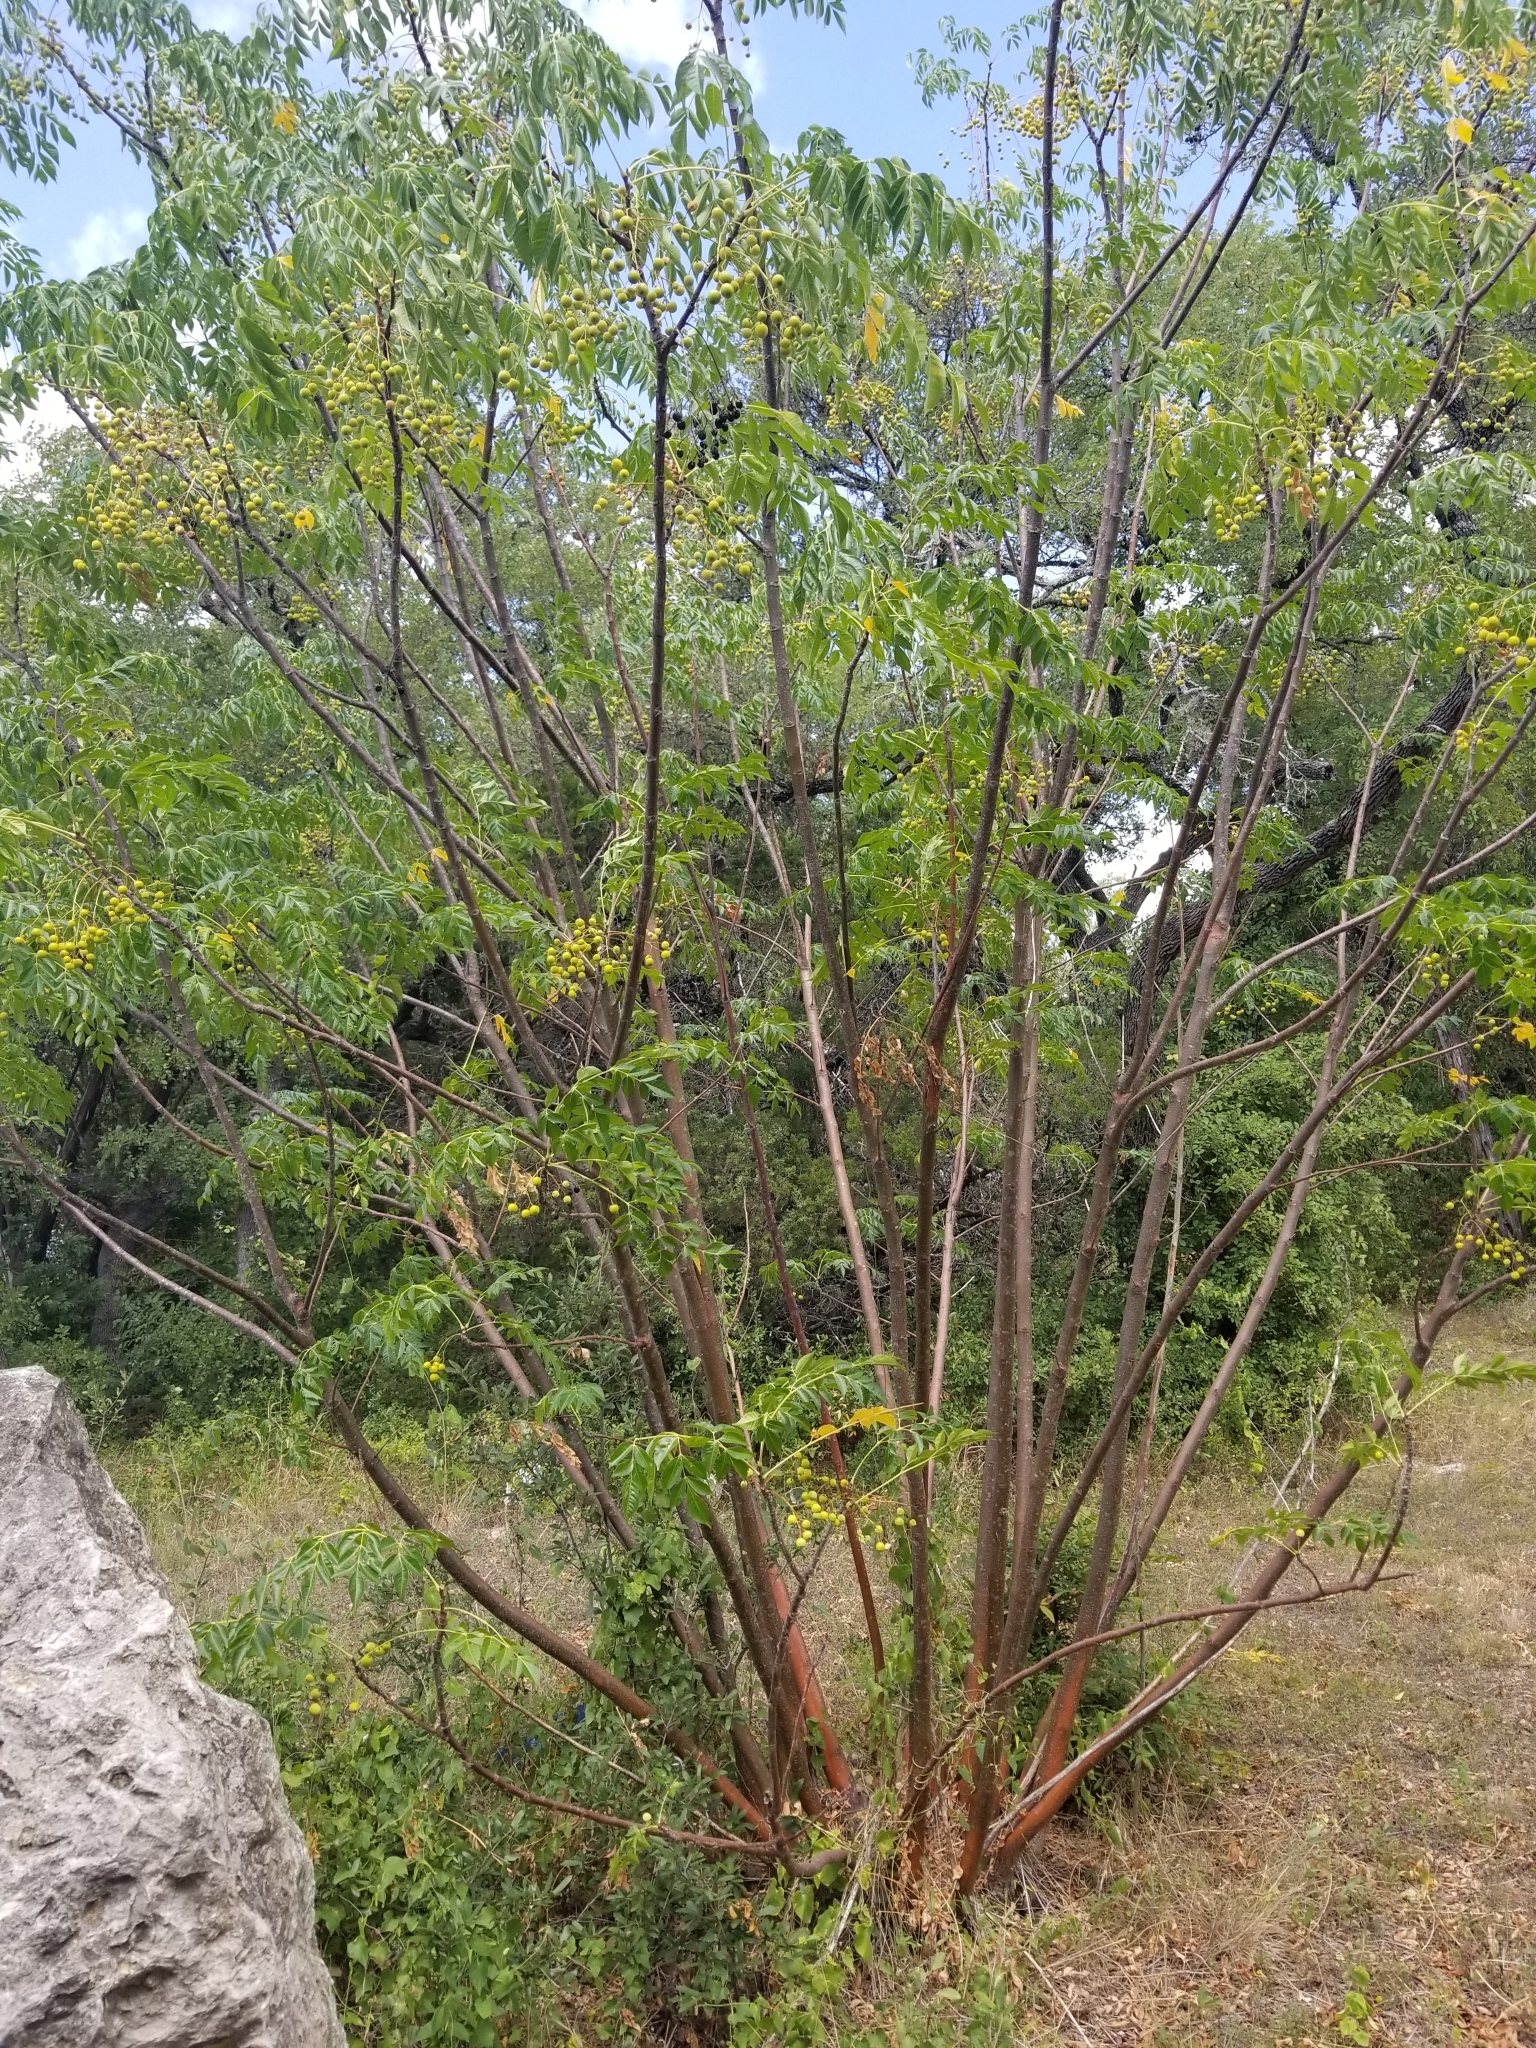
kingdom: Plantae
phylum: Tracheophyta
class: Magnoliopsida
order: Sapindales
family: Meliaceae
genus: Melia
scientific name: Melia azedarach
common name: Chinaberrytree
